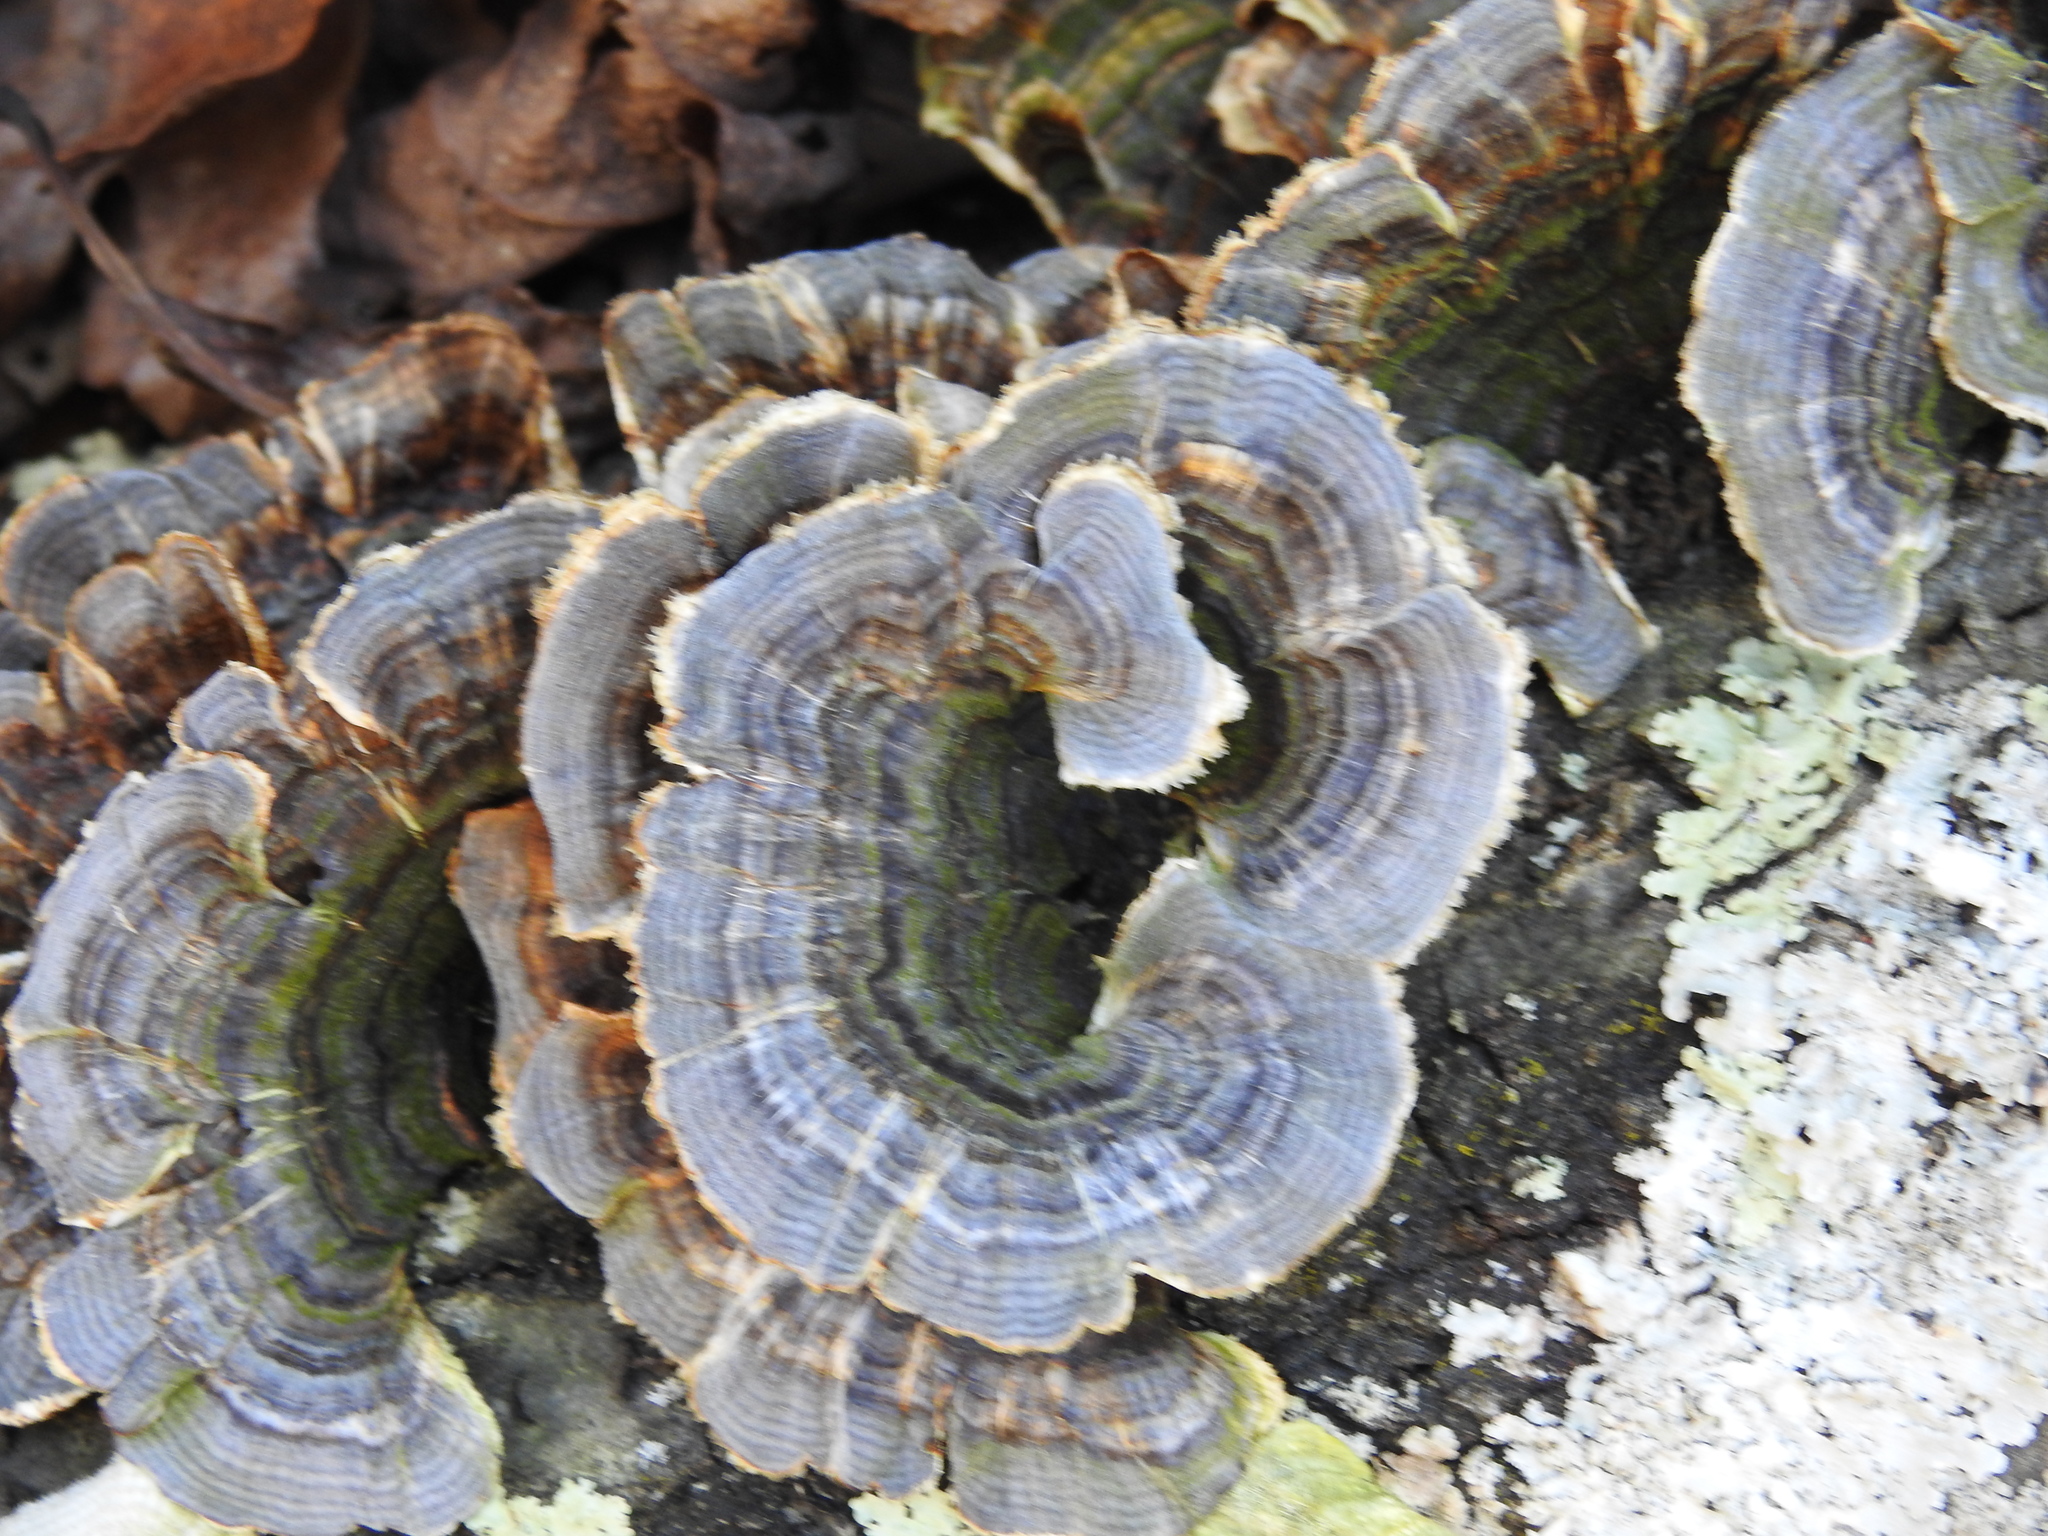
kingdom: Fungi
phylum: Basidiomycota
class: Agaricomycetes
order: Polyporales
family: Polyporaceae
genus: Trametes
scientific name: Trametes versicolor
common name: Turkeytail
